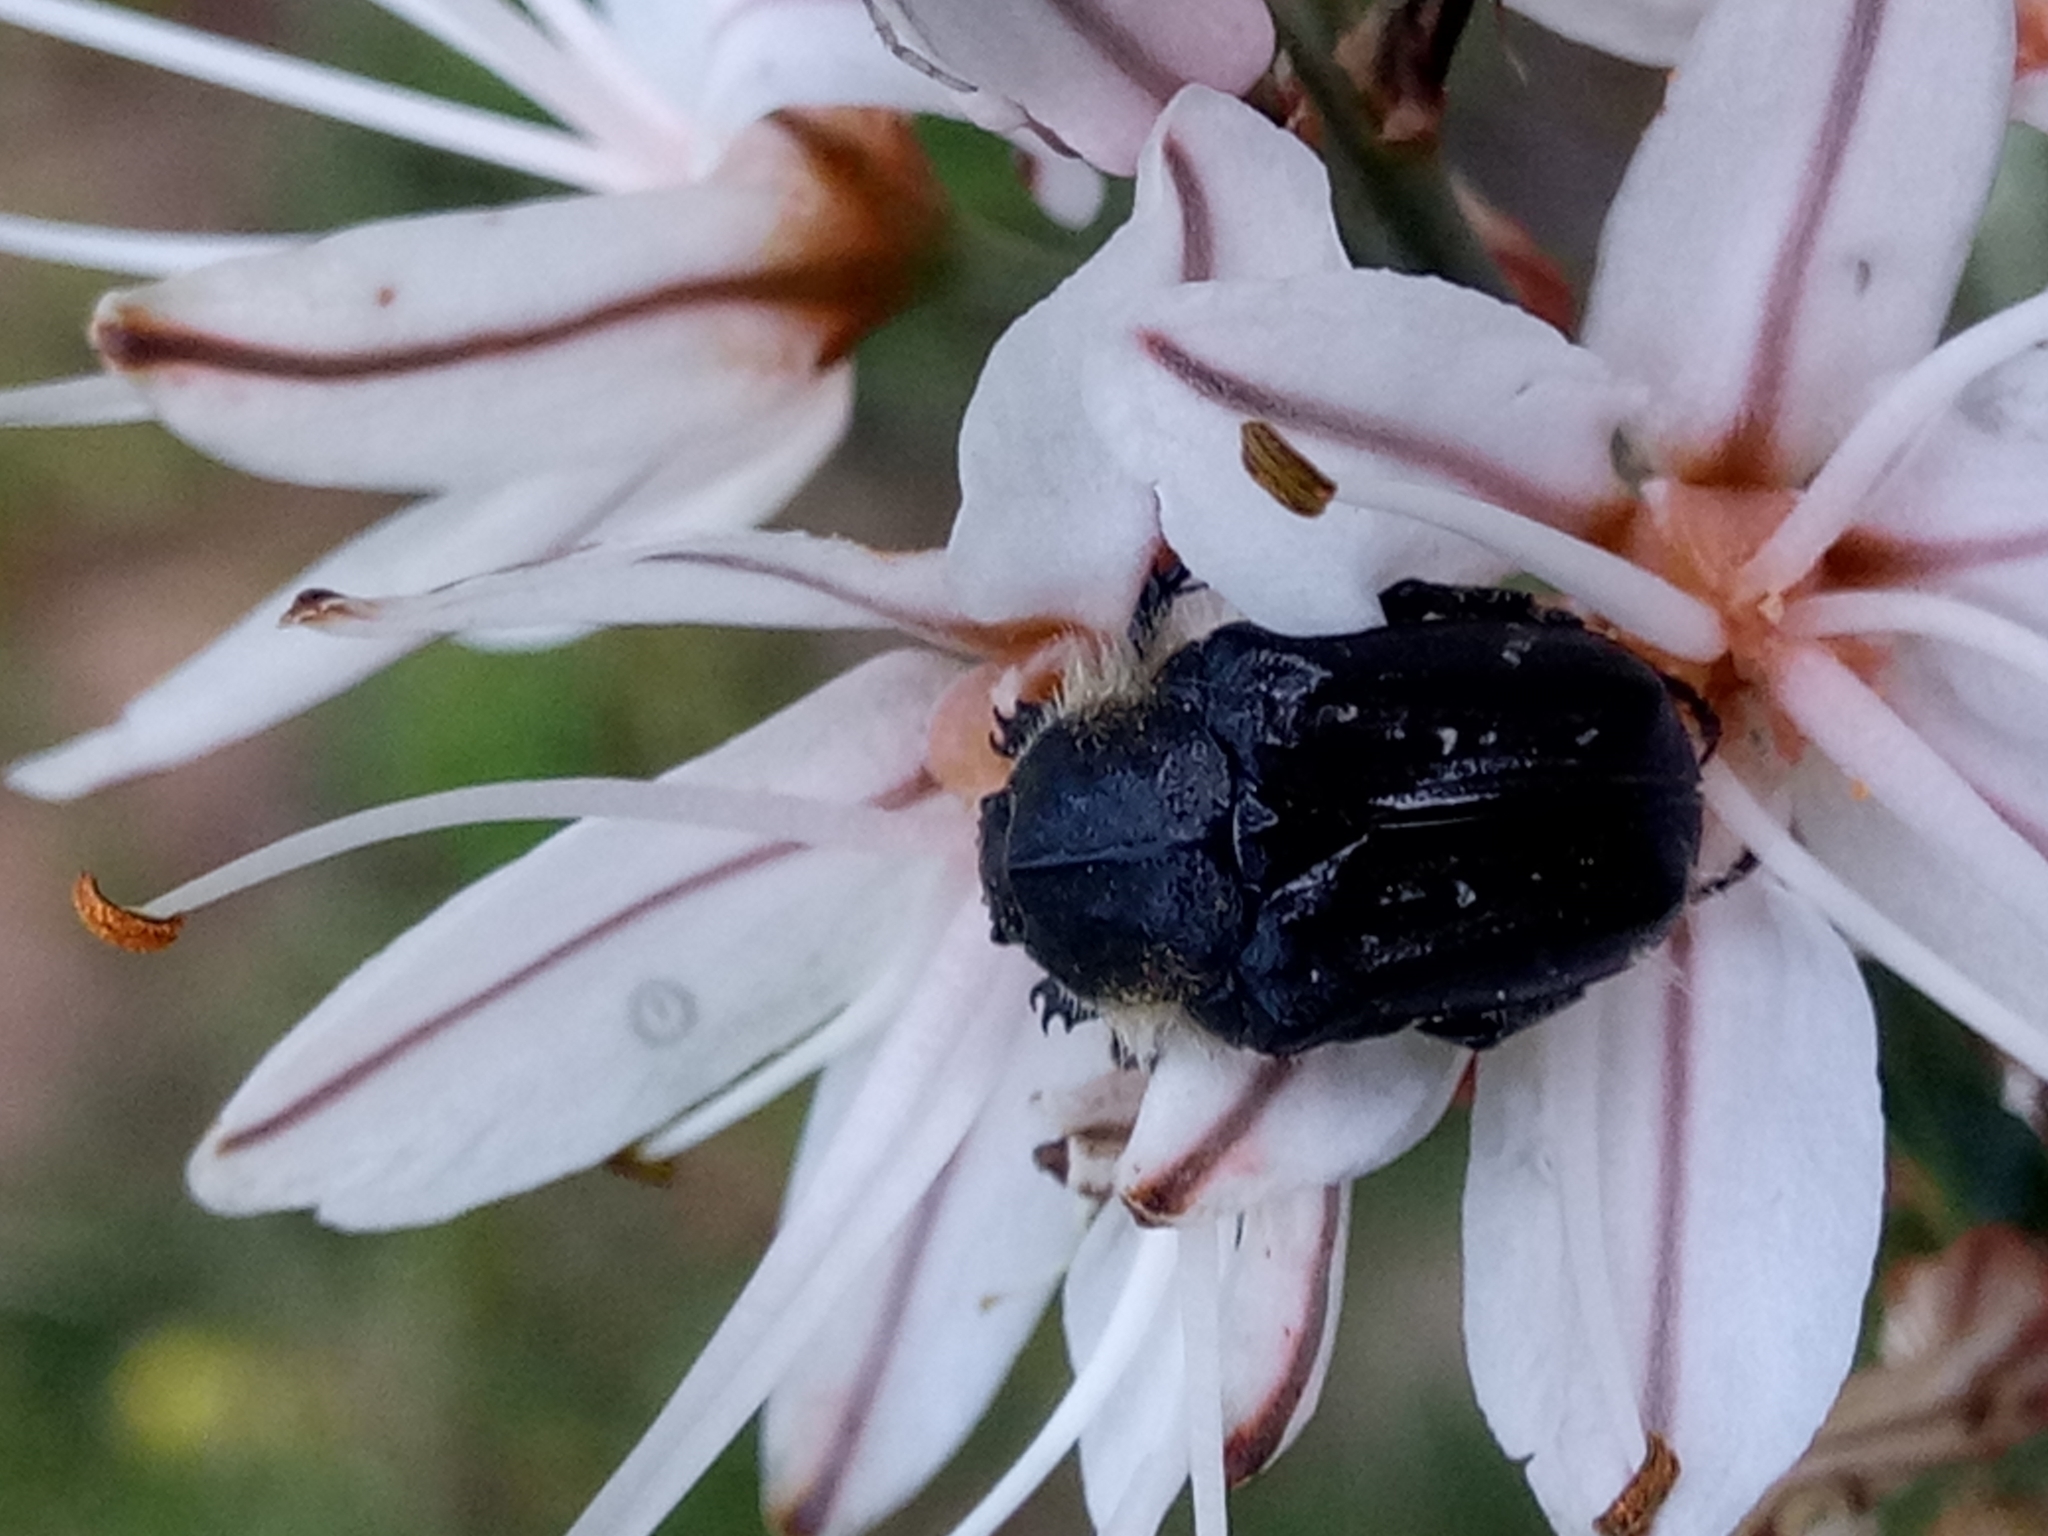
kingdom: Animalia
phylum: Arthropoda
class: Insecta
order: Coleoptera
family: Scarabaeidae
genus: Tropinota
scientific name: Tropinota squalida
